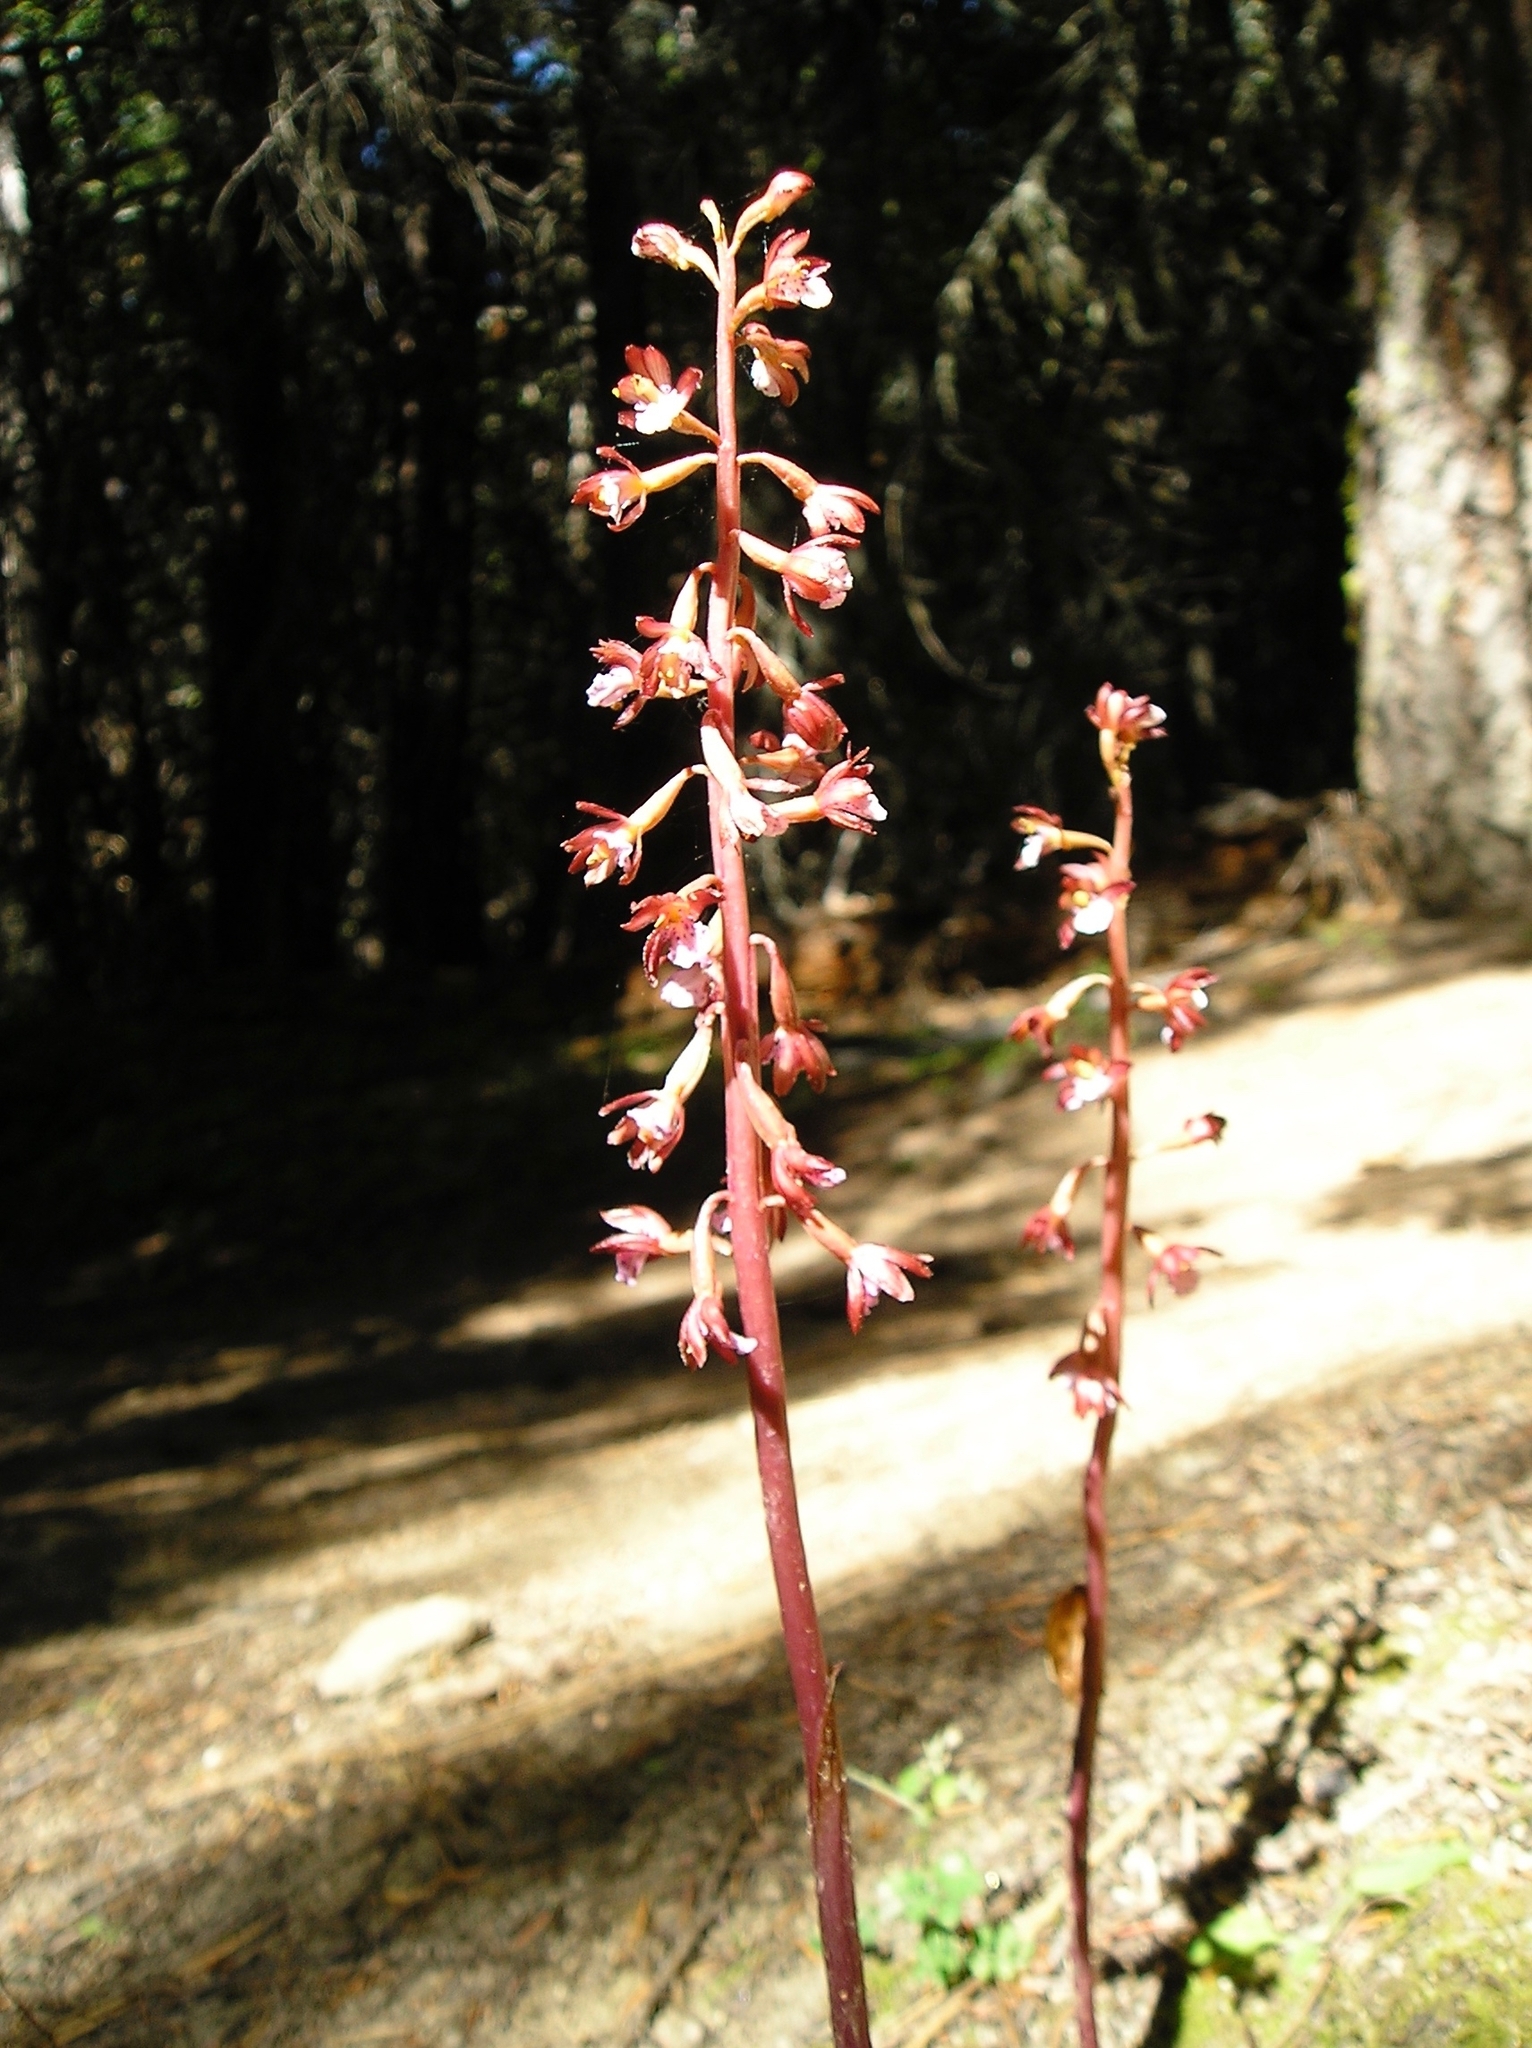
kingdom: Plantae
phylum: Tracheophyta
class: Liliopsida
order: Asparagales
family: Orchidaceae
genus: Corallorhiza
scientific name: Corallorhiza maculata
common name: Spotted coralroot
